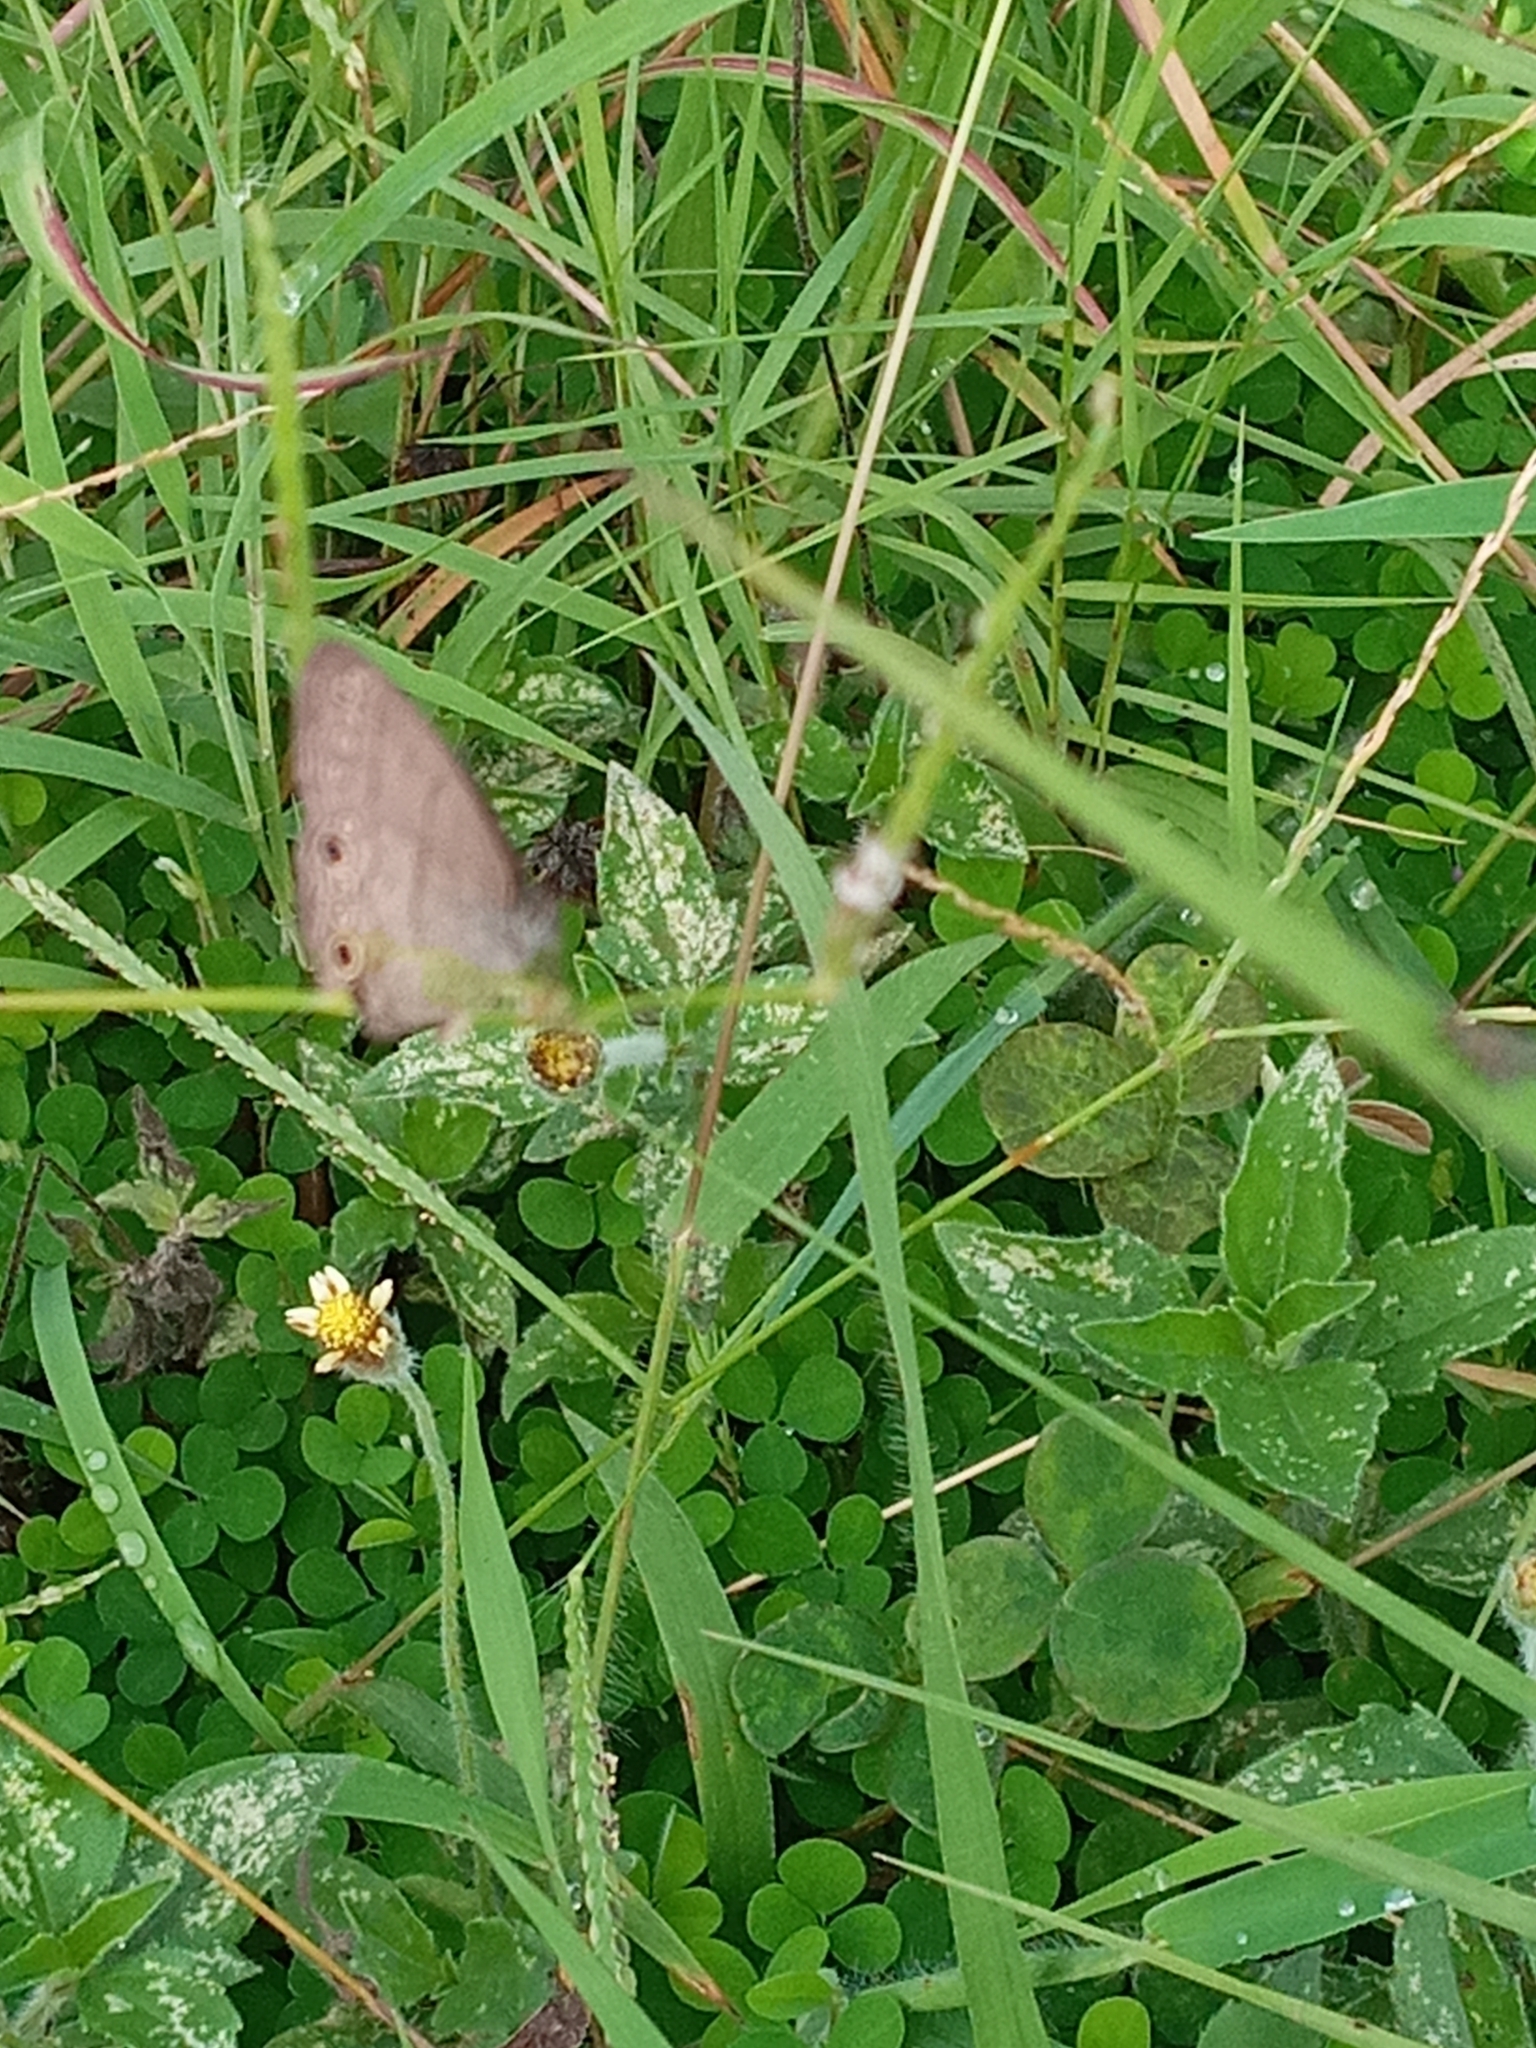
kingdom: Animalia
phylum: Arthropoda
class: Insecta
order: Lepidoptera
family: Nymphalidae
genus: Euptychiina
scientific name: Euptychiina
